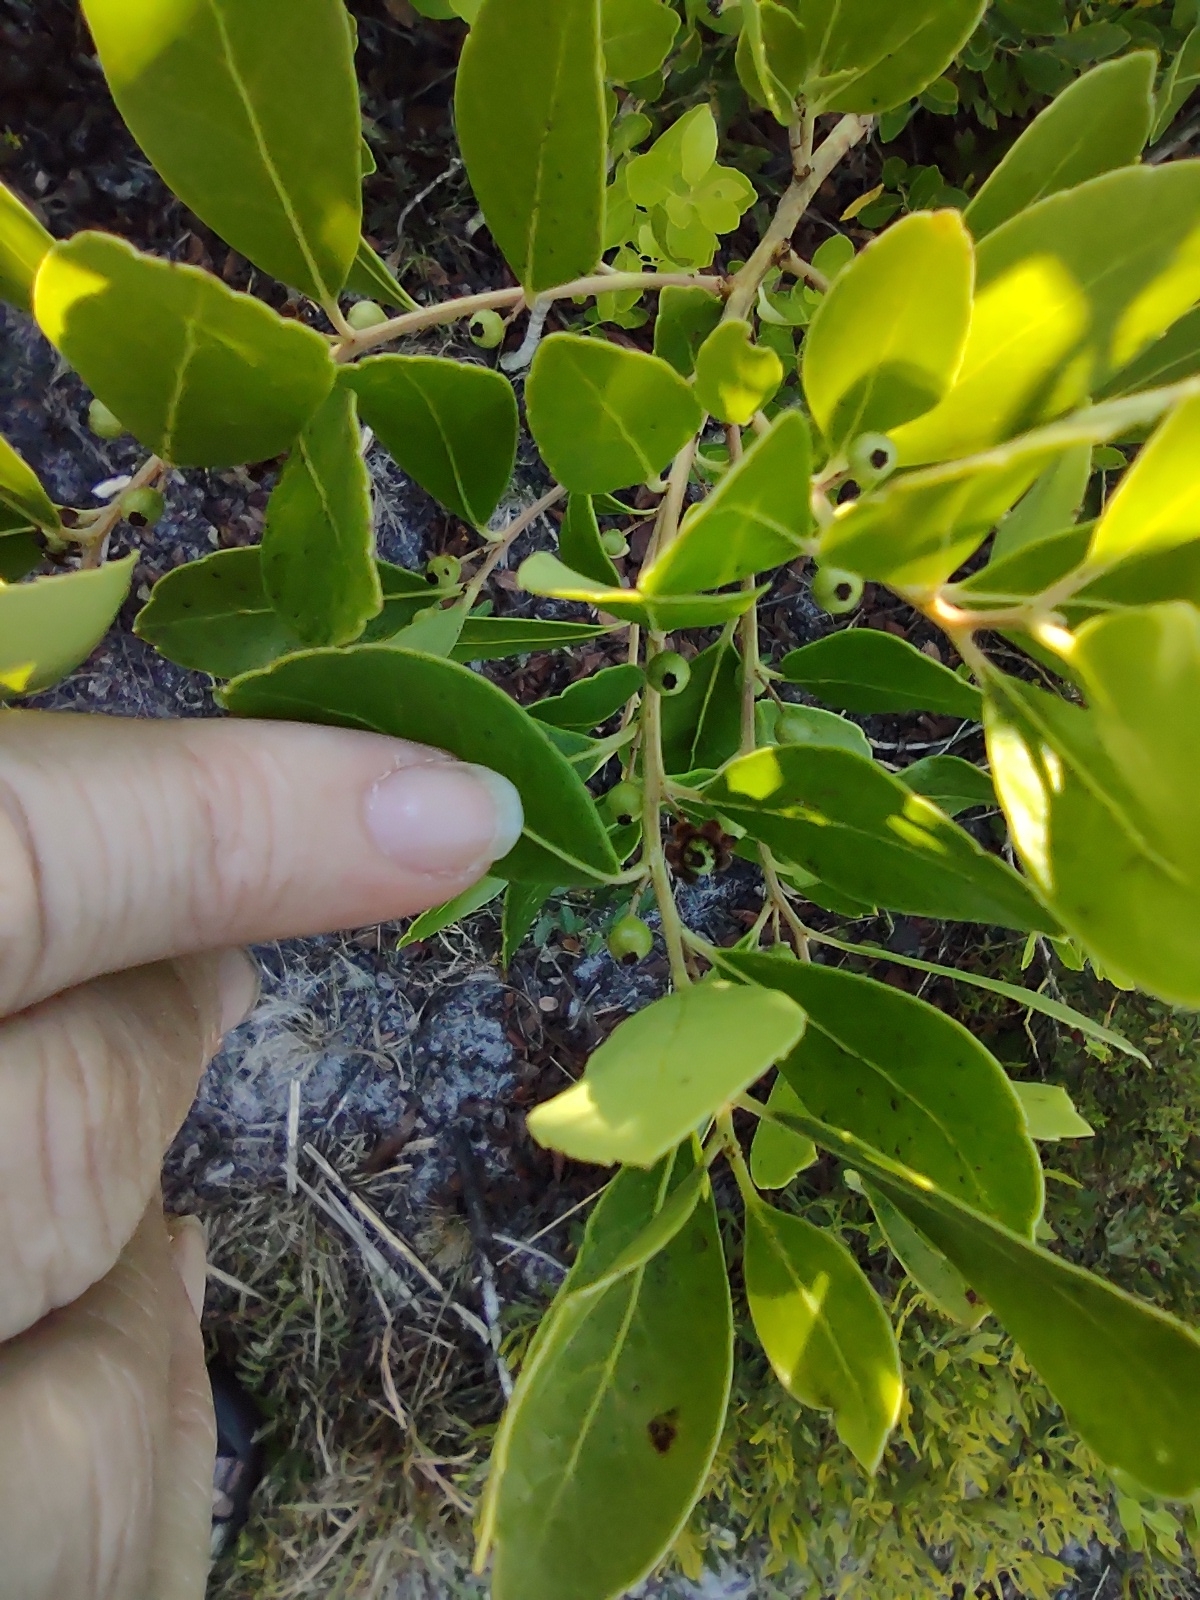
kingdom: Plantae
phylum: Tracheophyta
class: Magnoliopsida
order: Aquifoliales
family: Aquifoliaceae
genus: Ilex
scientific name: Ilex glabra
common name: Bitter gallberry
